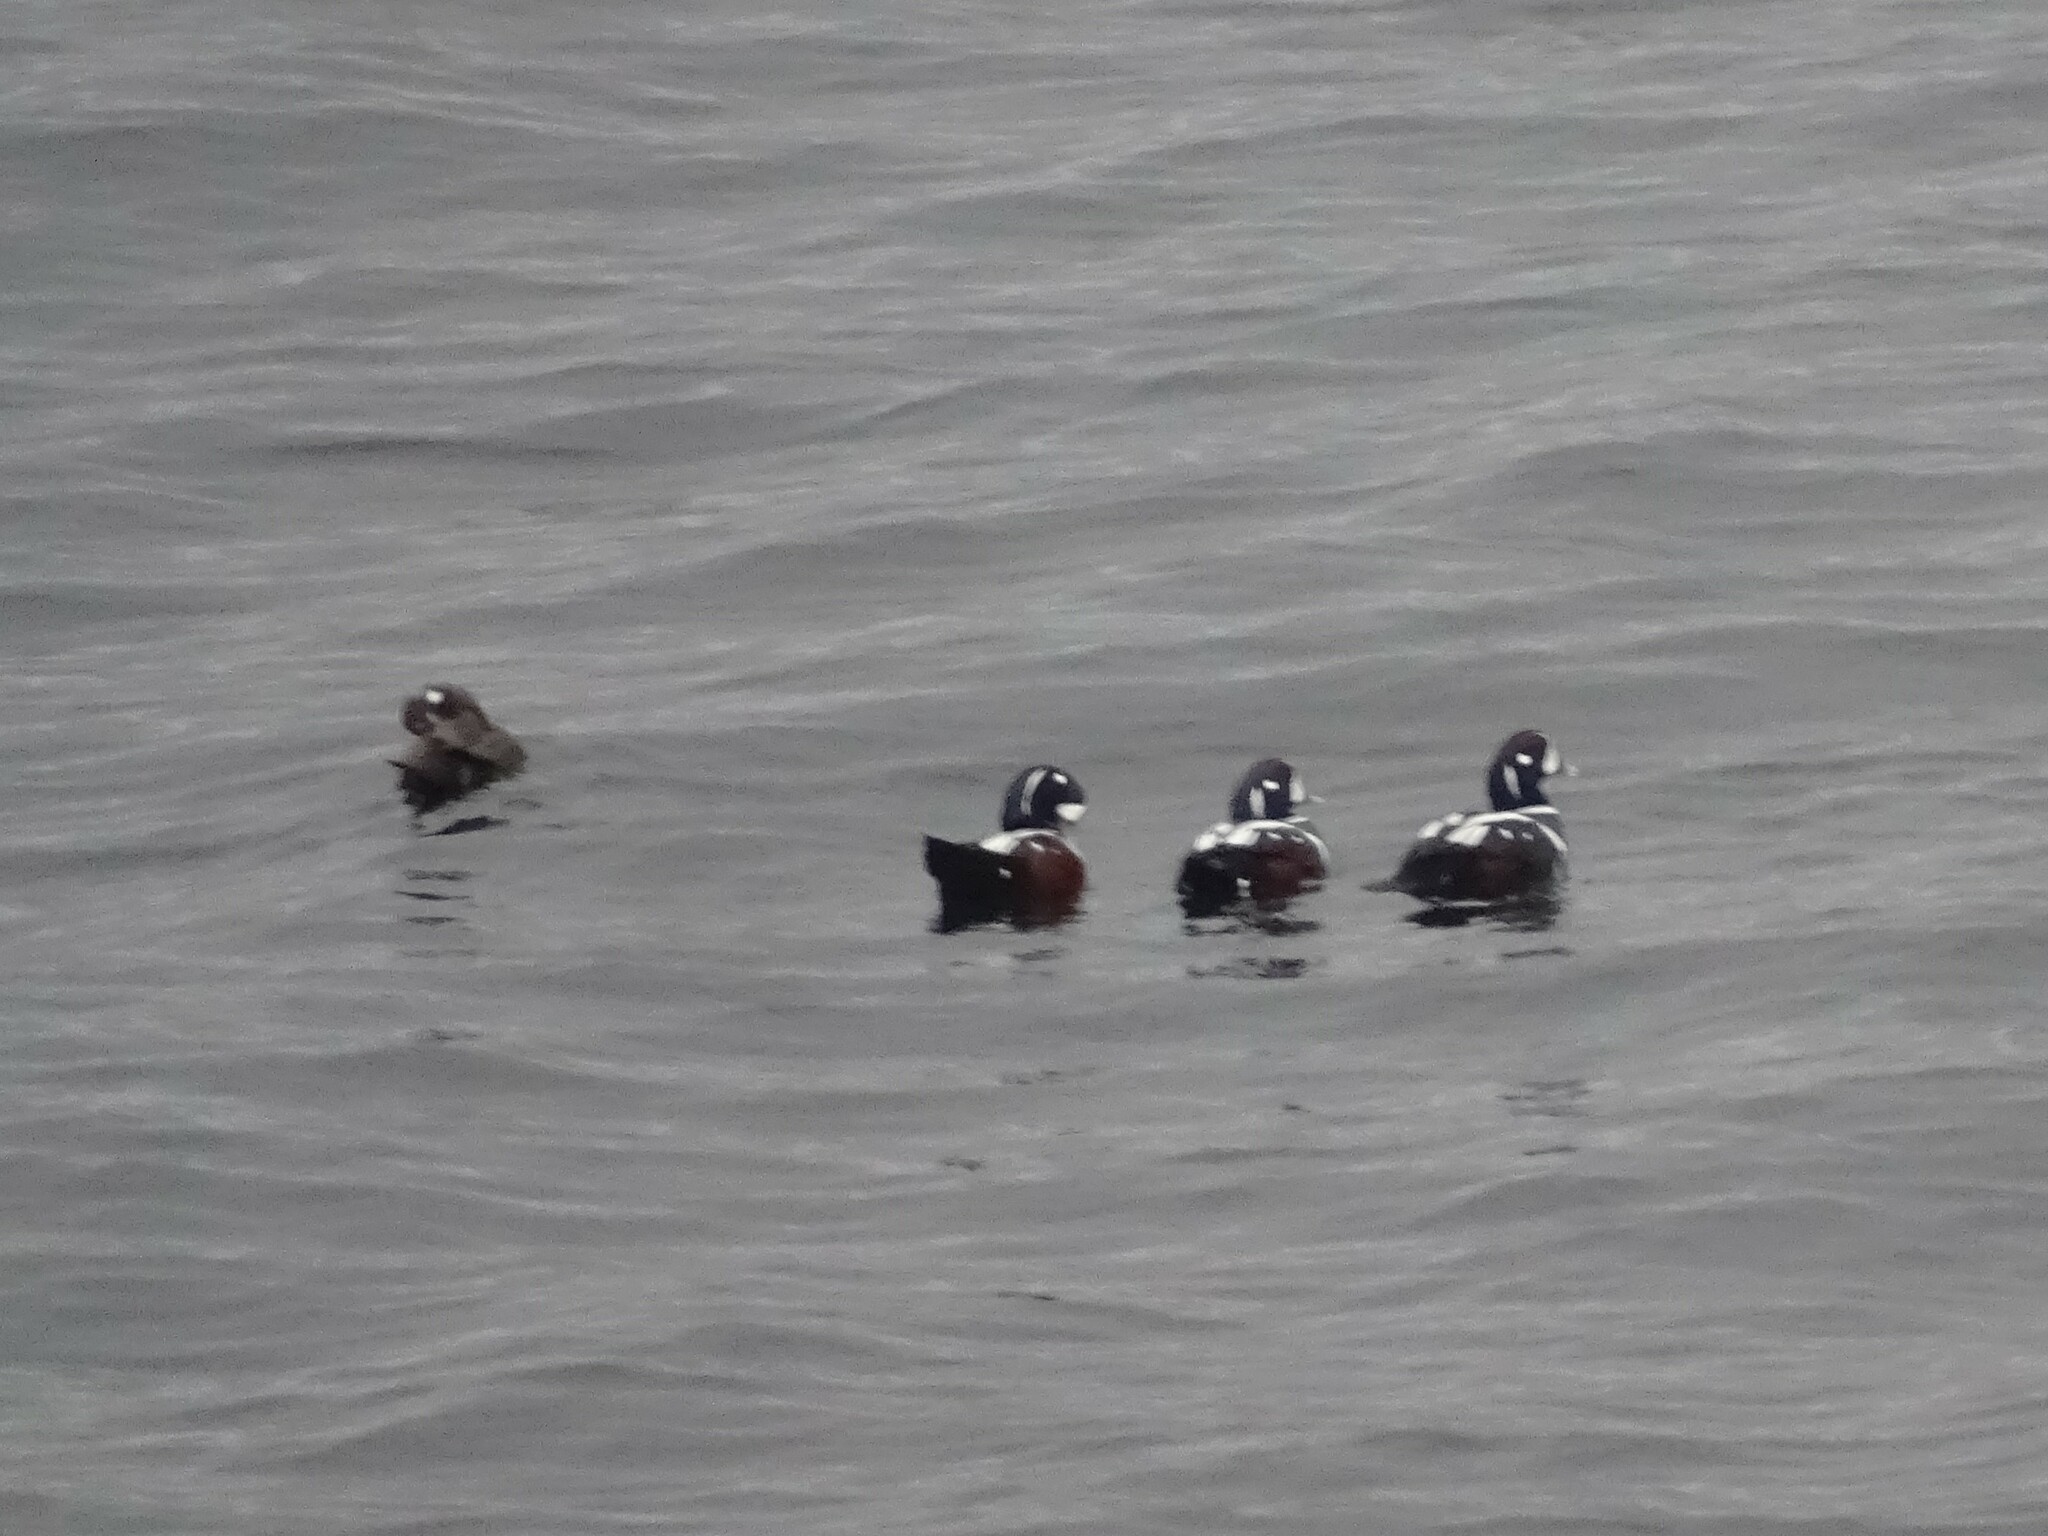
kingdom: Animalia
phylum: Chordata
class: Aves
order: Anseriformes
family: Anatidae
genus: Histrionicus
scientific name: Histrionicus histrionicus
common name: Harlequin duck
